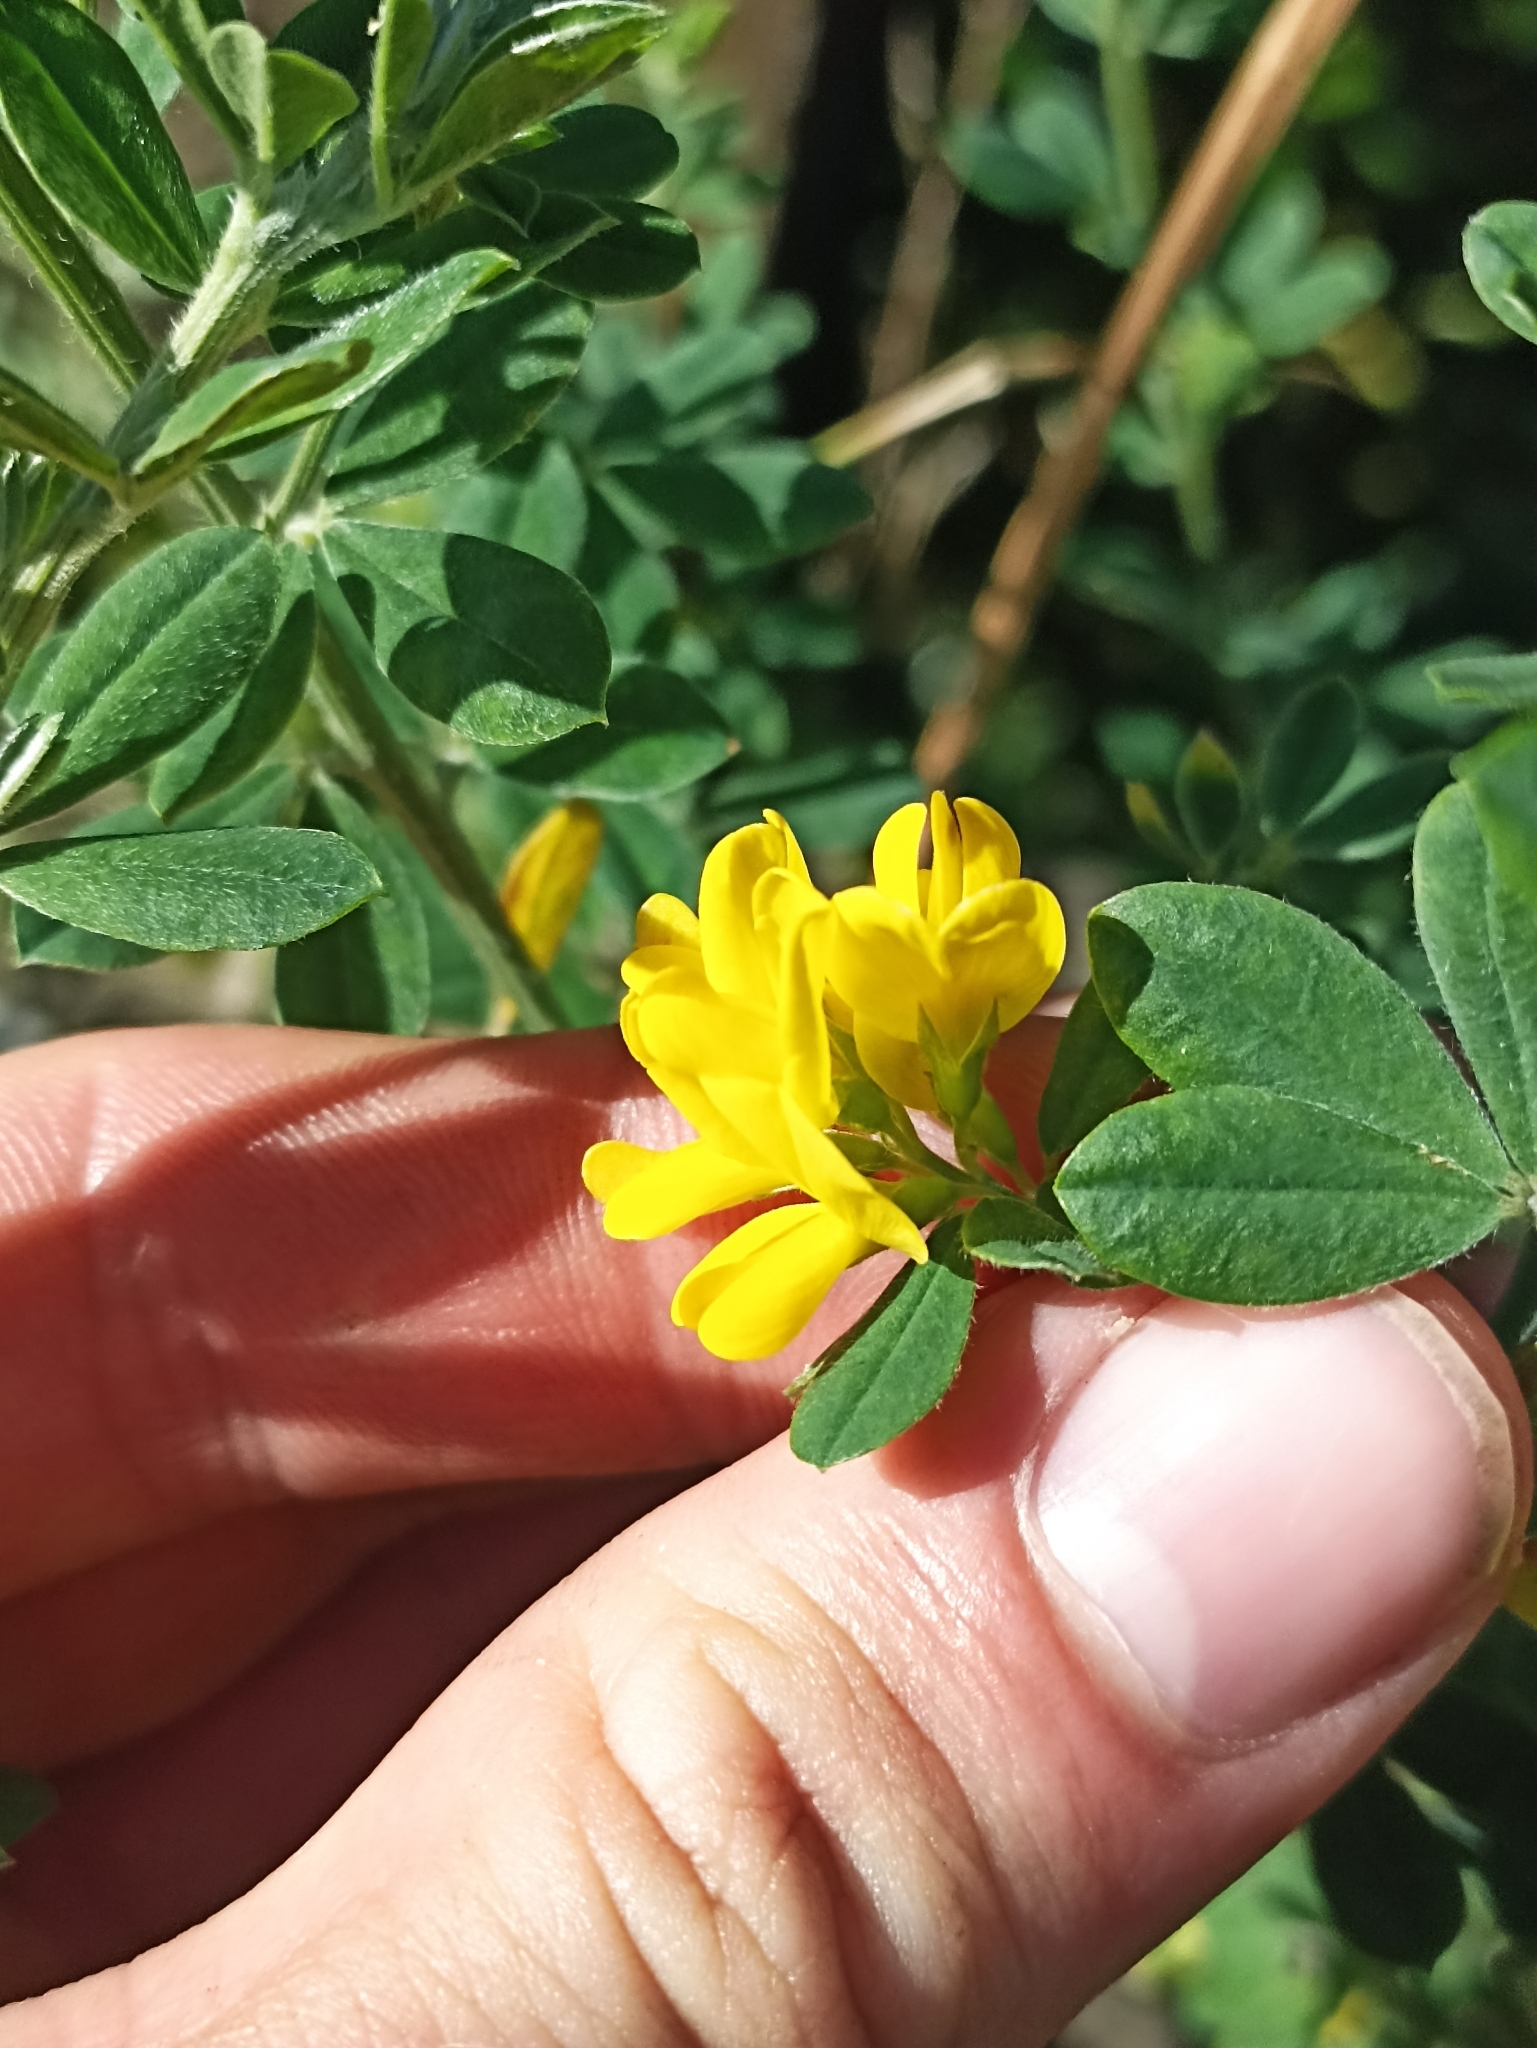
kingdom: Plantae
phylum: Tracheophyta
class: Magnoliopsida
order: Fabales
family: Fabaceae
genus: Genista
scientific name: Genista monspessulana
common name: Montpellier broom
